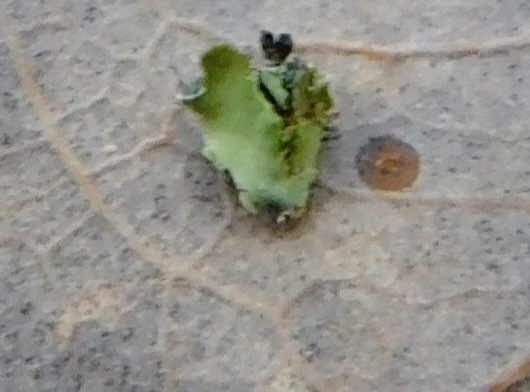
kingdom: Fungi
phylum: Ascomycota
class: Lecanoromycetes
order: Caliciales
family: Physciaceae
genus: Phaeophyscia
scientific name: Phaeophyscia adiastola
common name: Powder-tipped shadow lichen
